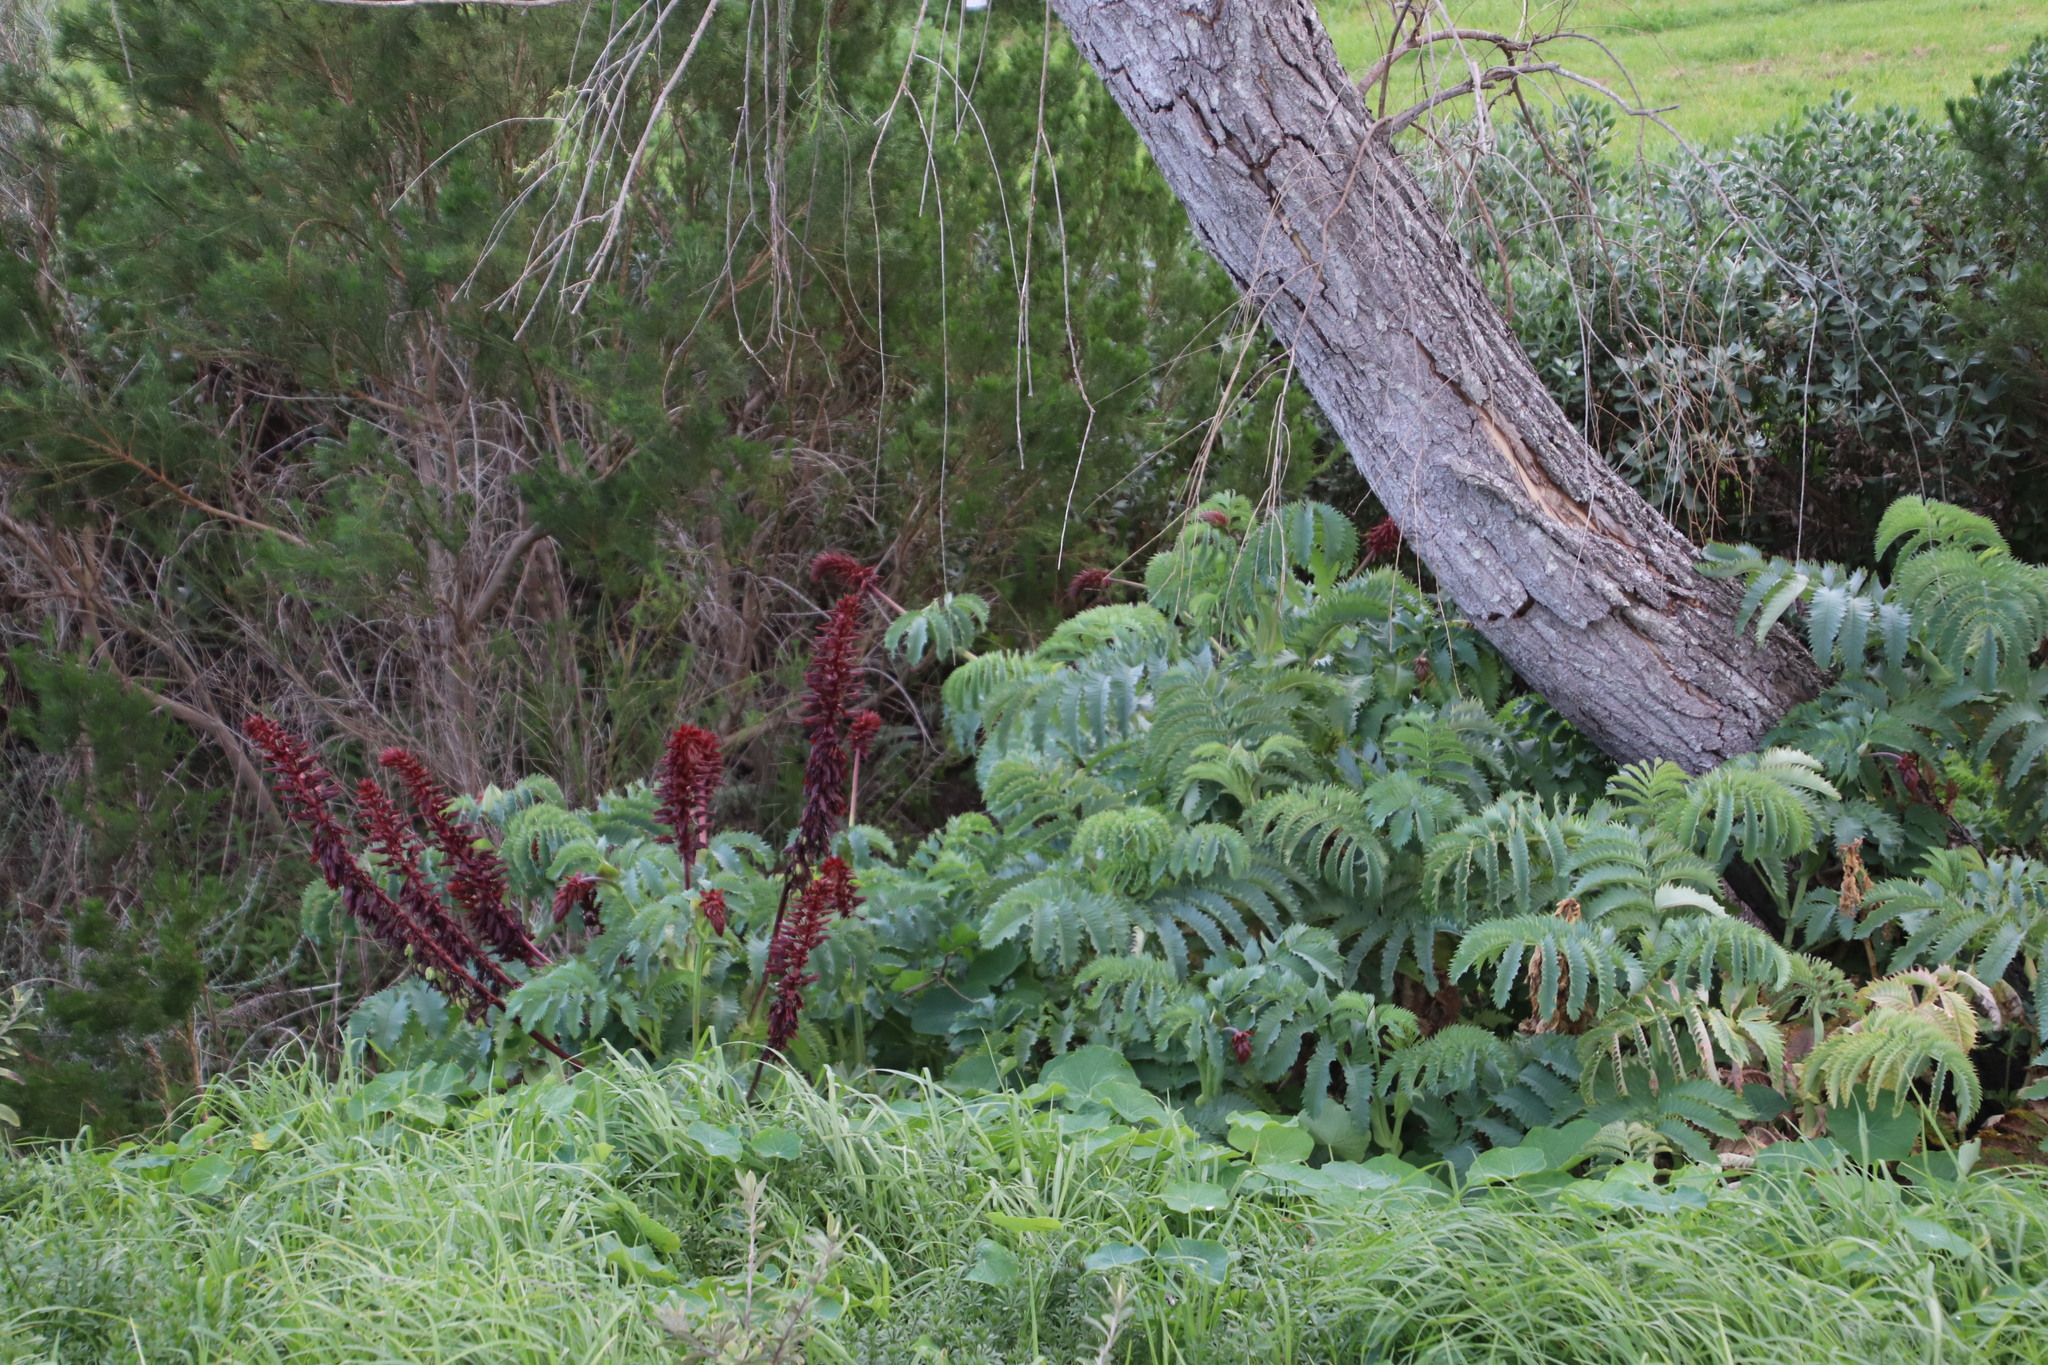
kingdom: Plantae
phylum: Tracheophyta
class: Magnoliopsida
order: Geraniales
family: Melianthaceae
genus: Melianthus
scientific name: Melianthus major
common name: Honey-flower
